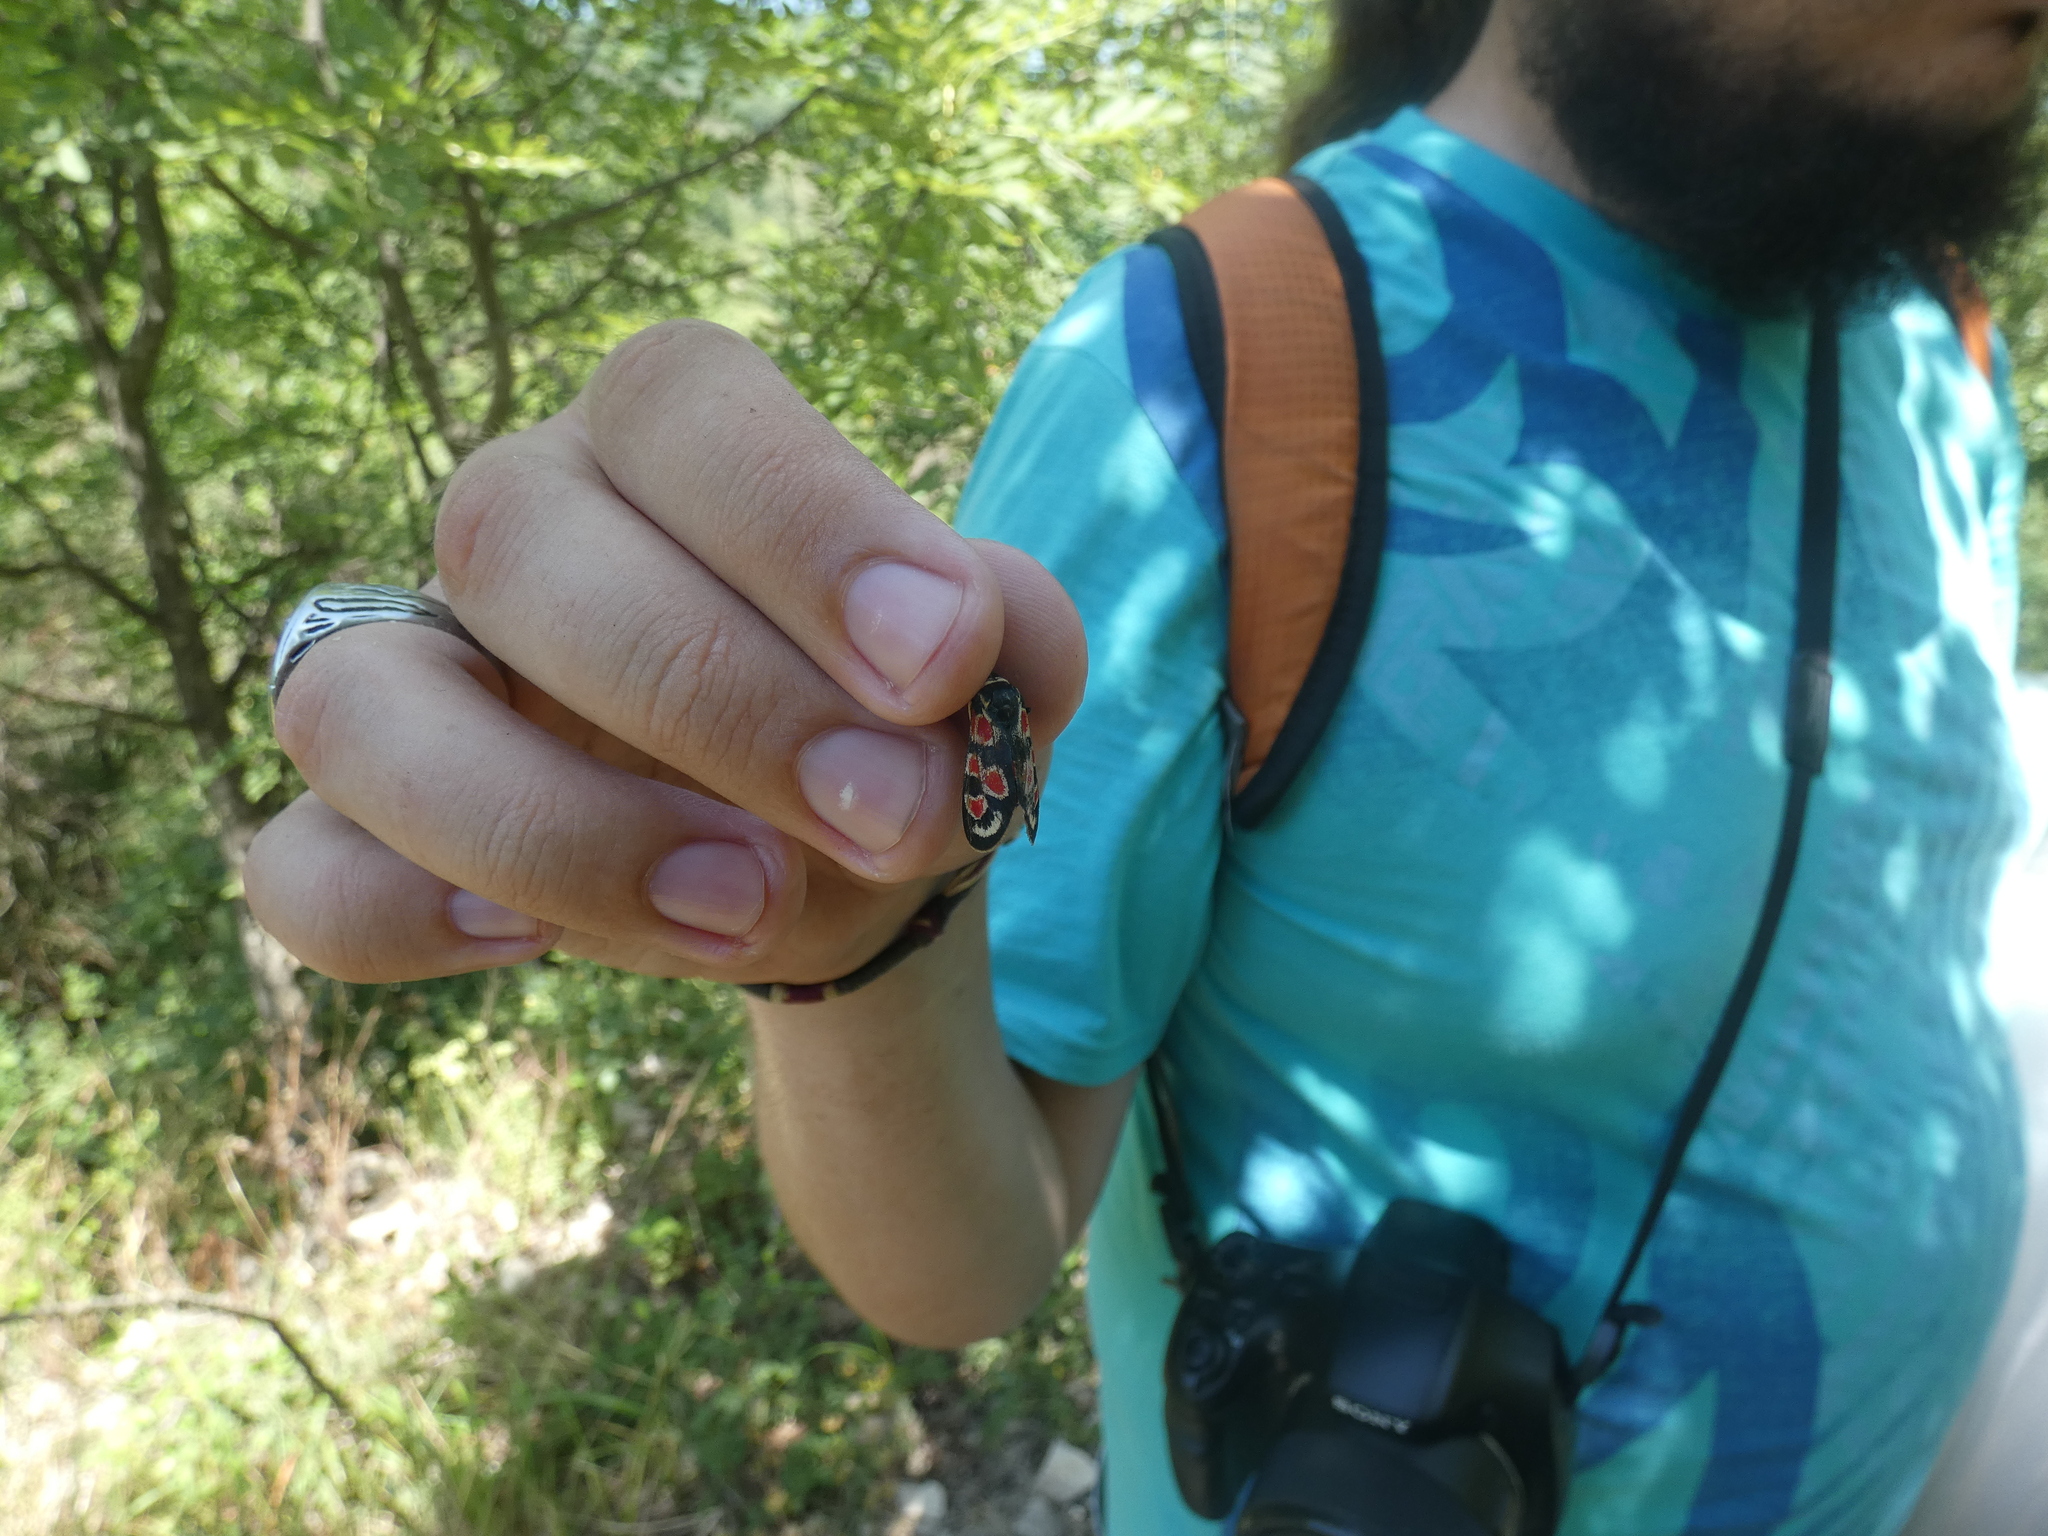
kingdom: Animalia
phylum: Arthropoda
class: Insecta
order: Lepidoptera
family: Zygaenidae
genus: Zygaena
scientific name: Zygaena occitanica
